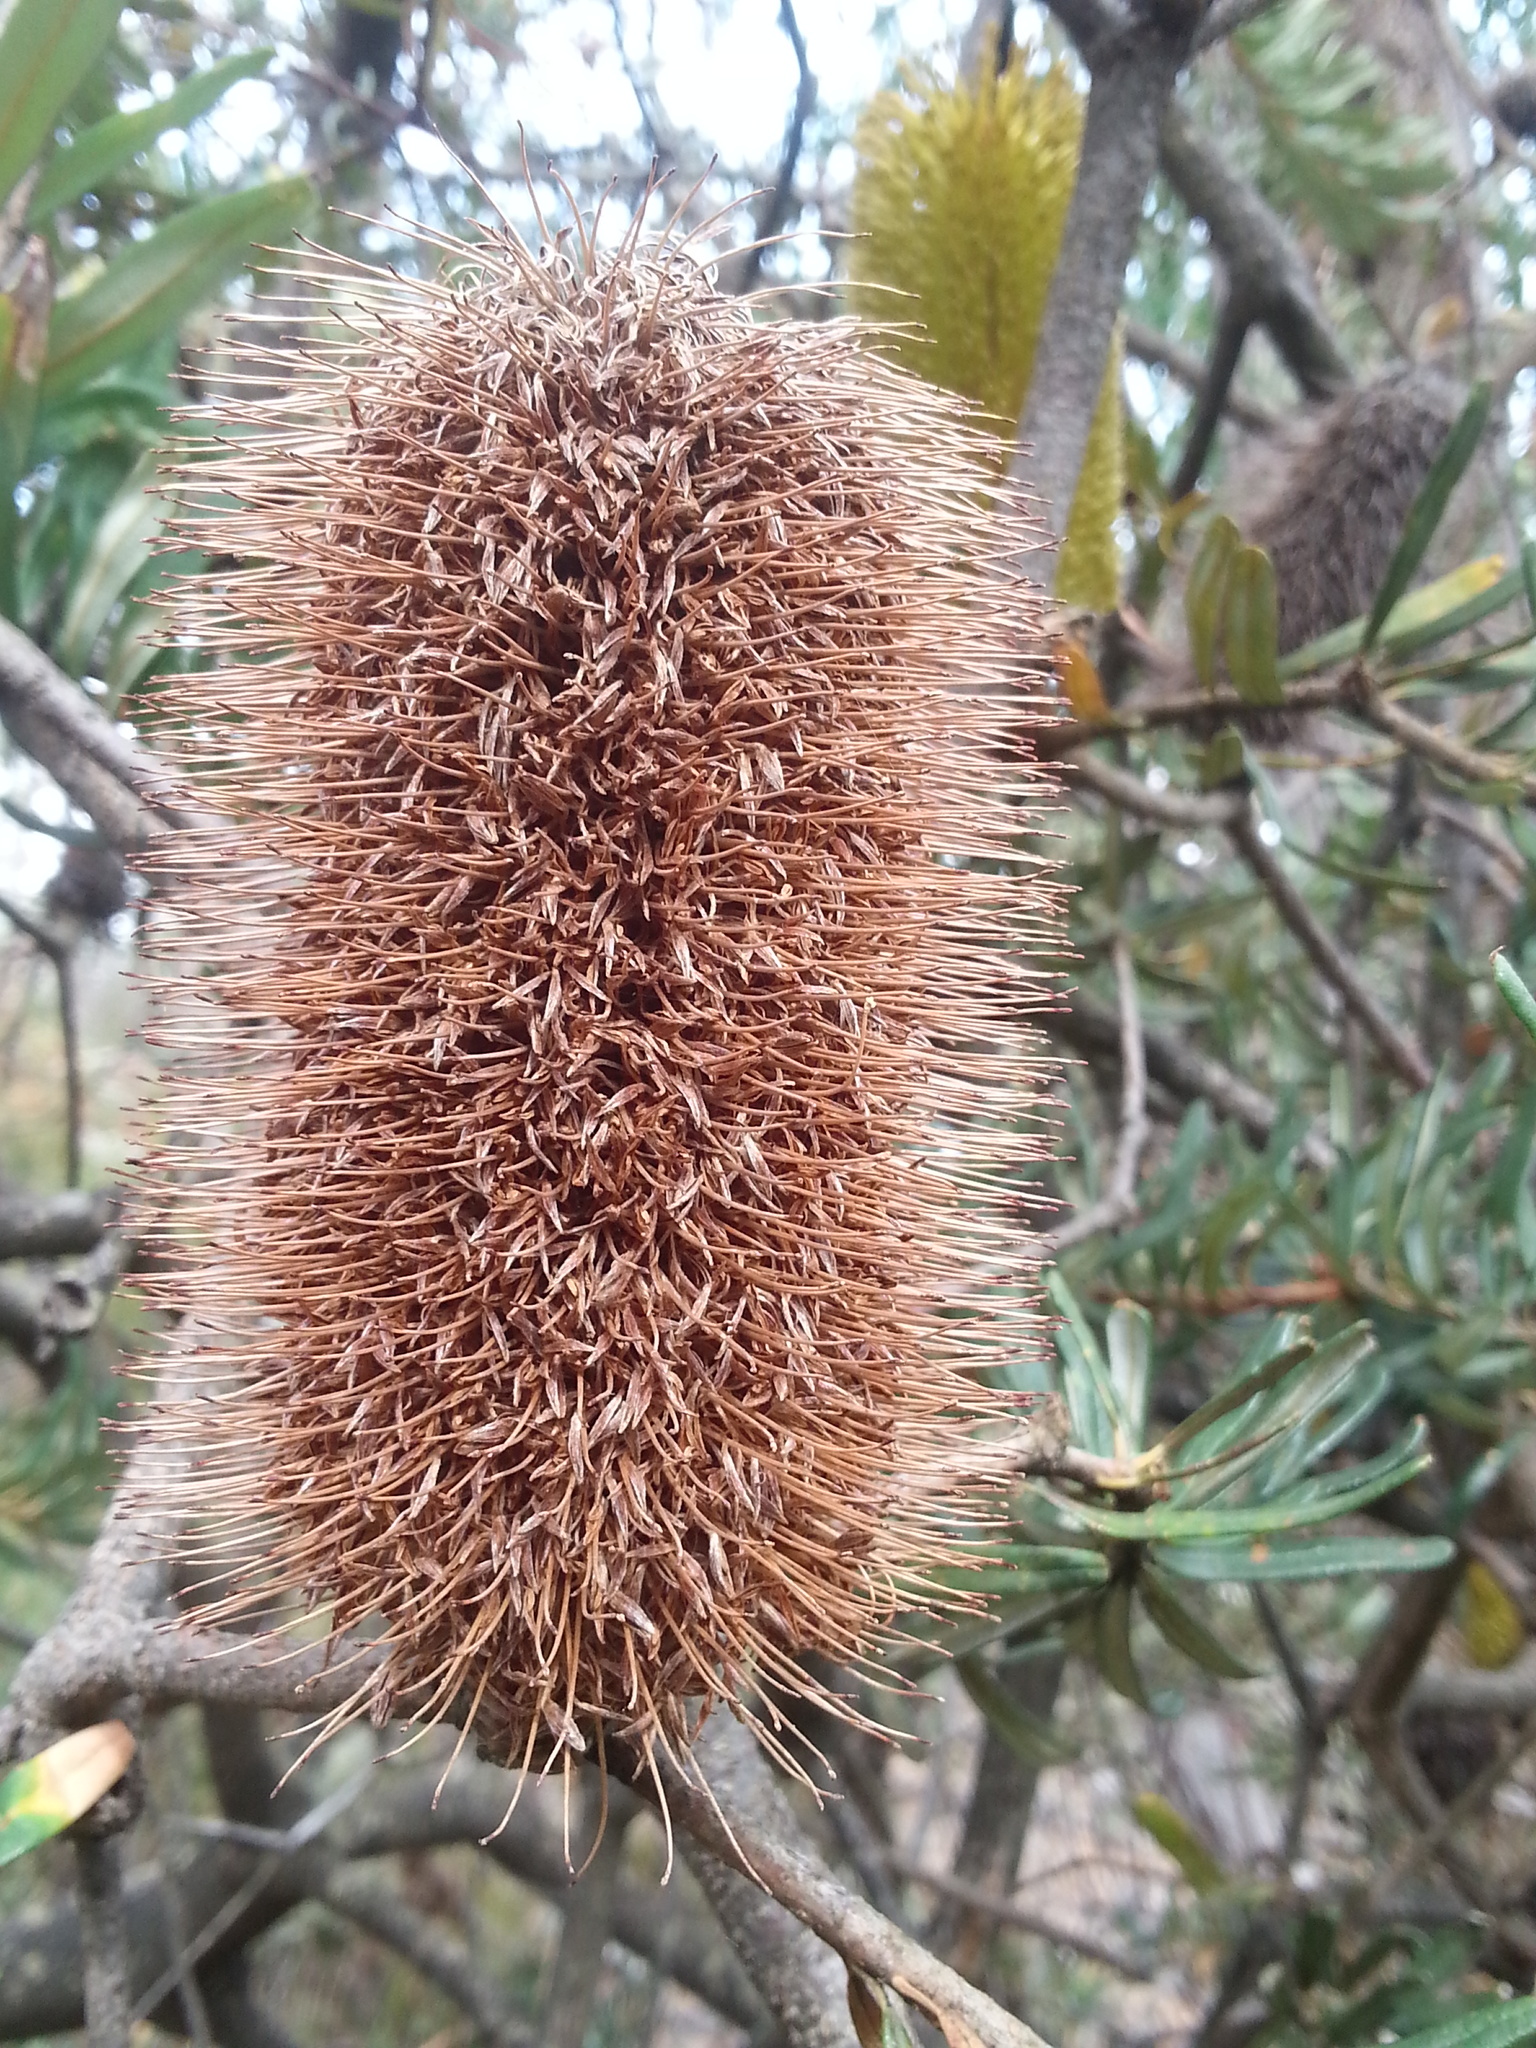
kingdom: Plantae
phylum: Tracheophyta
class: Magnoliopsida
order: Proteales
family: Proteaceae
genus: Banksia
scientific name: Banksia marginata
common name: Silver banksia
